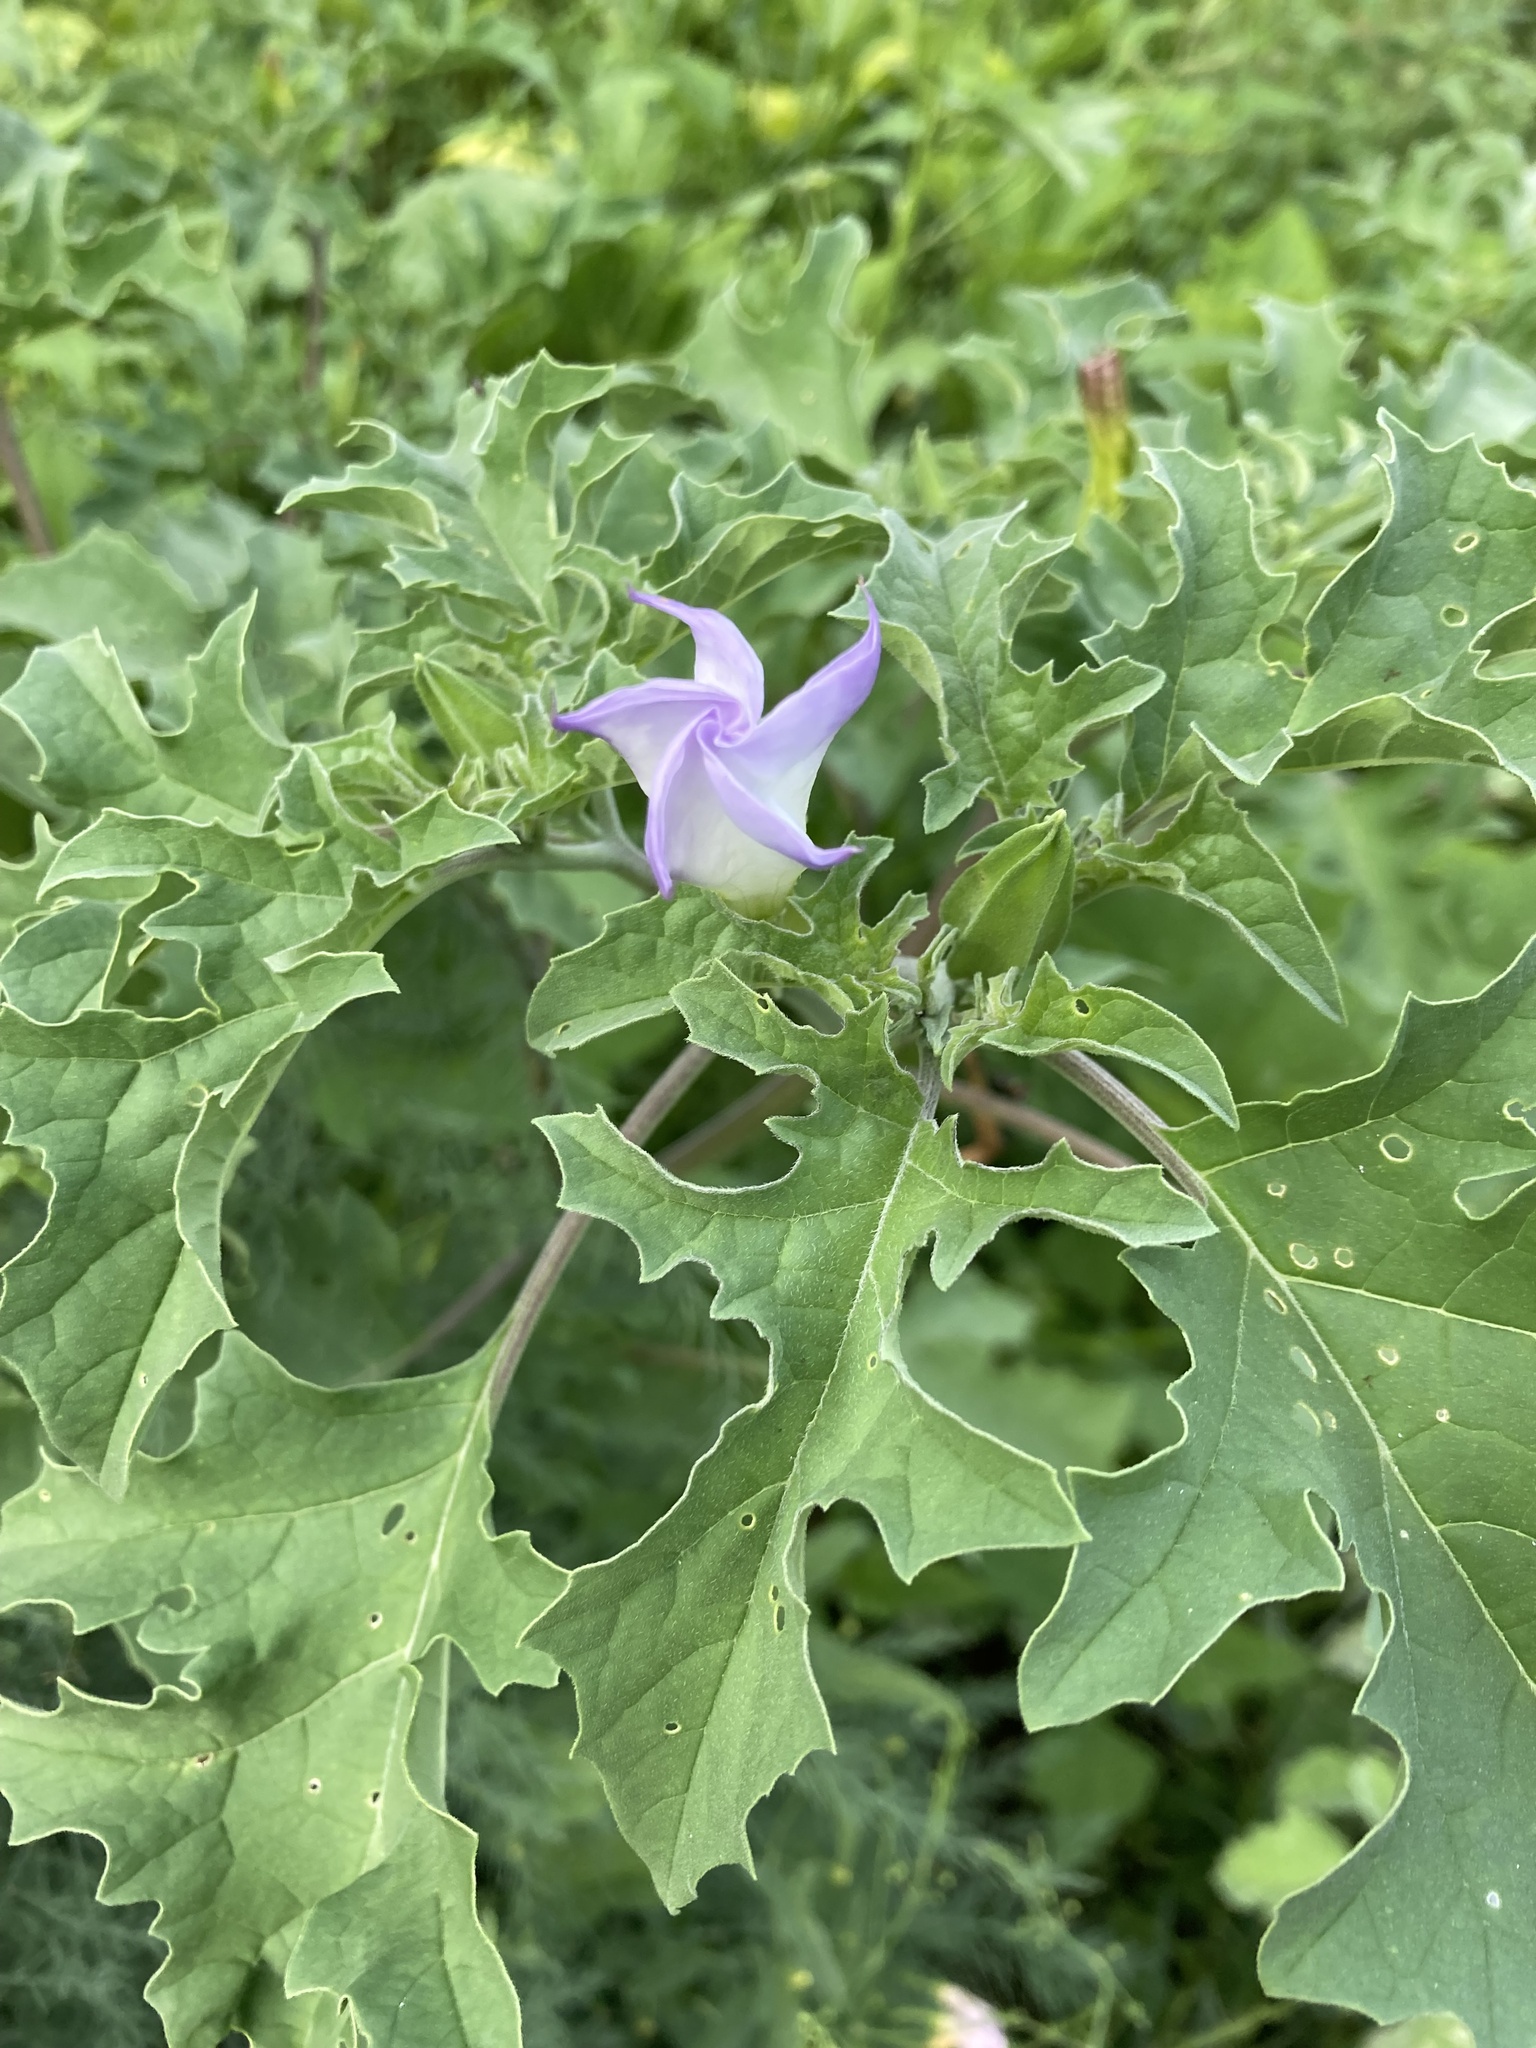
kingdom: Plantae
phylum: Tracheophyta
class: Magnoliopsida
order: Solanales
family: Solanaceae
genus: Datura
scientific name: Datura quercifolia
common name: Oak-leaf datura
